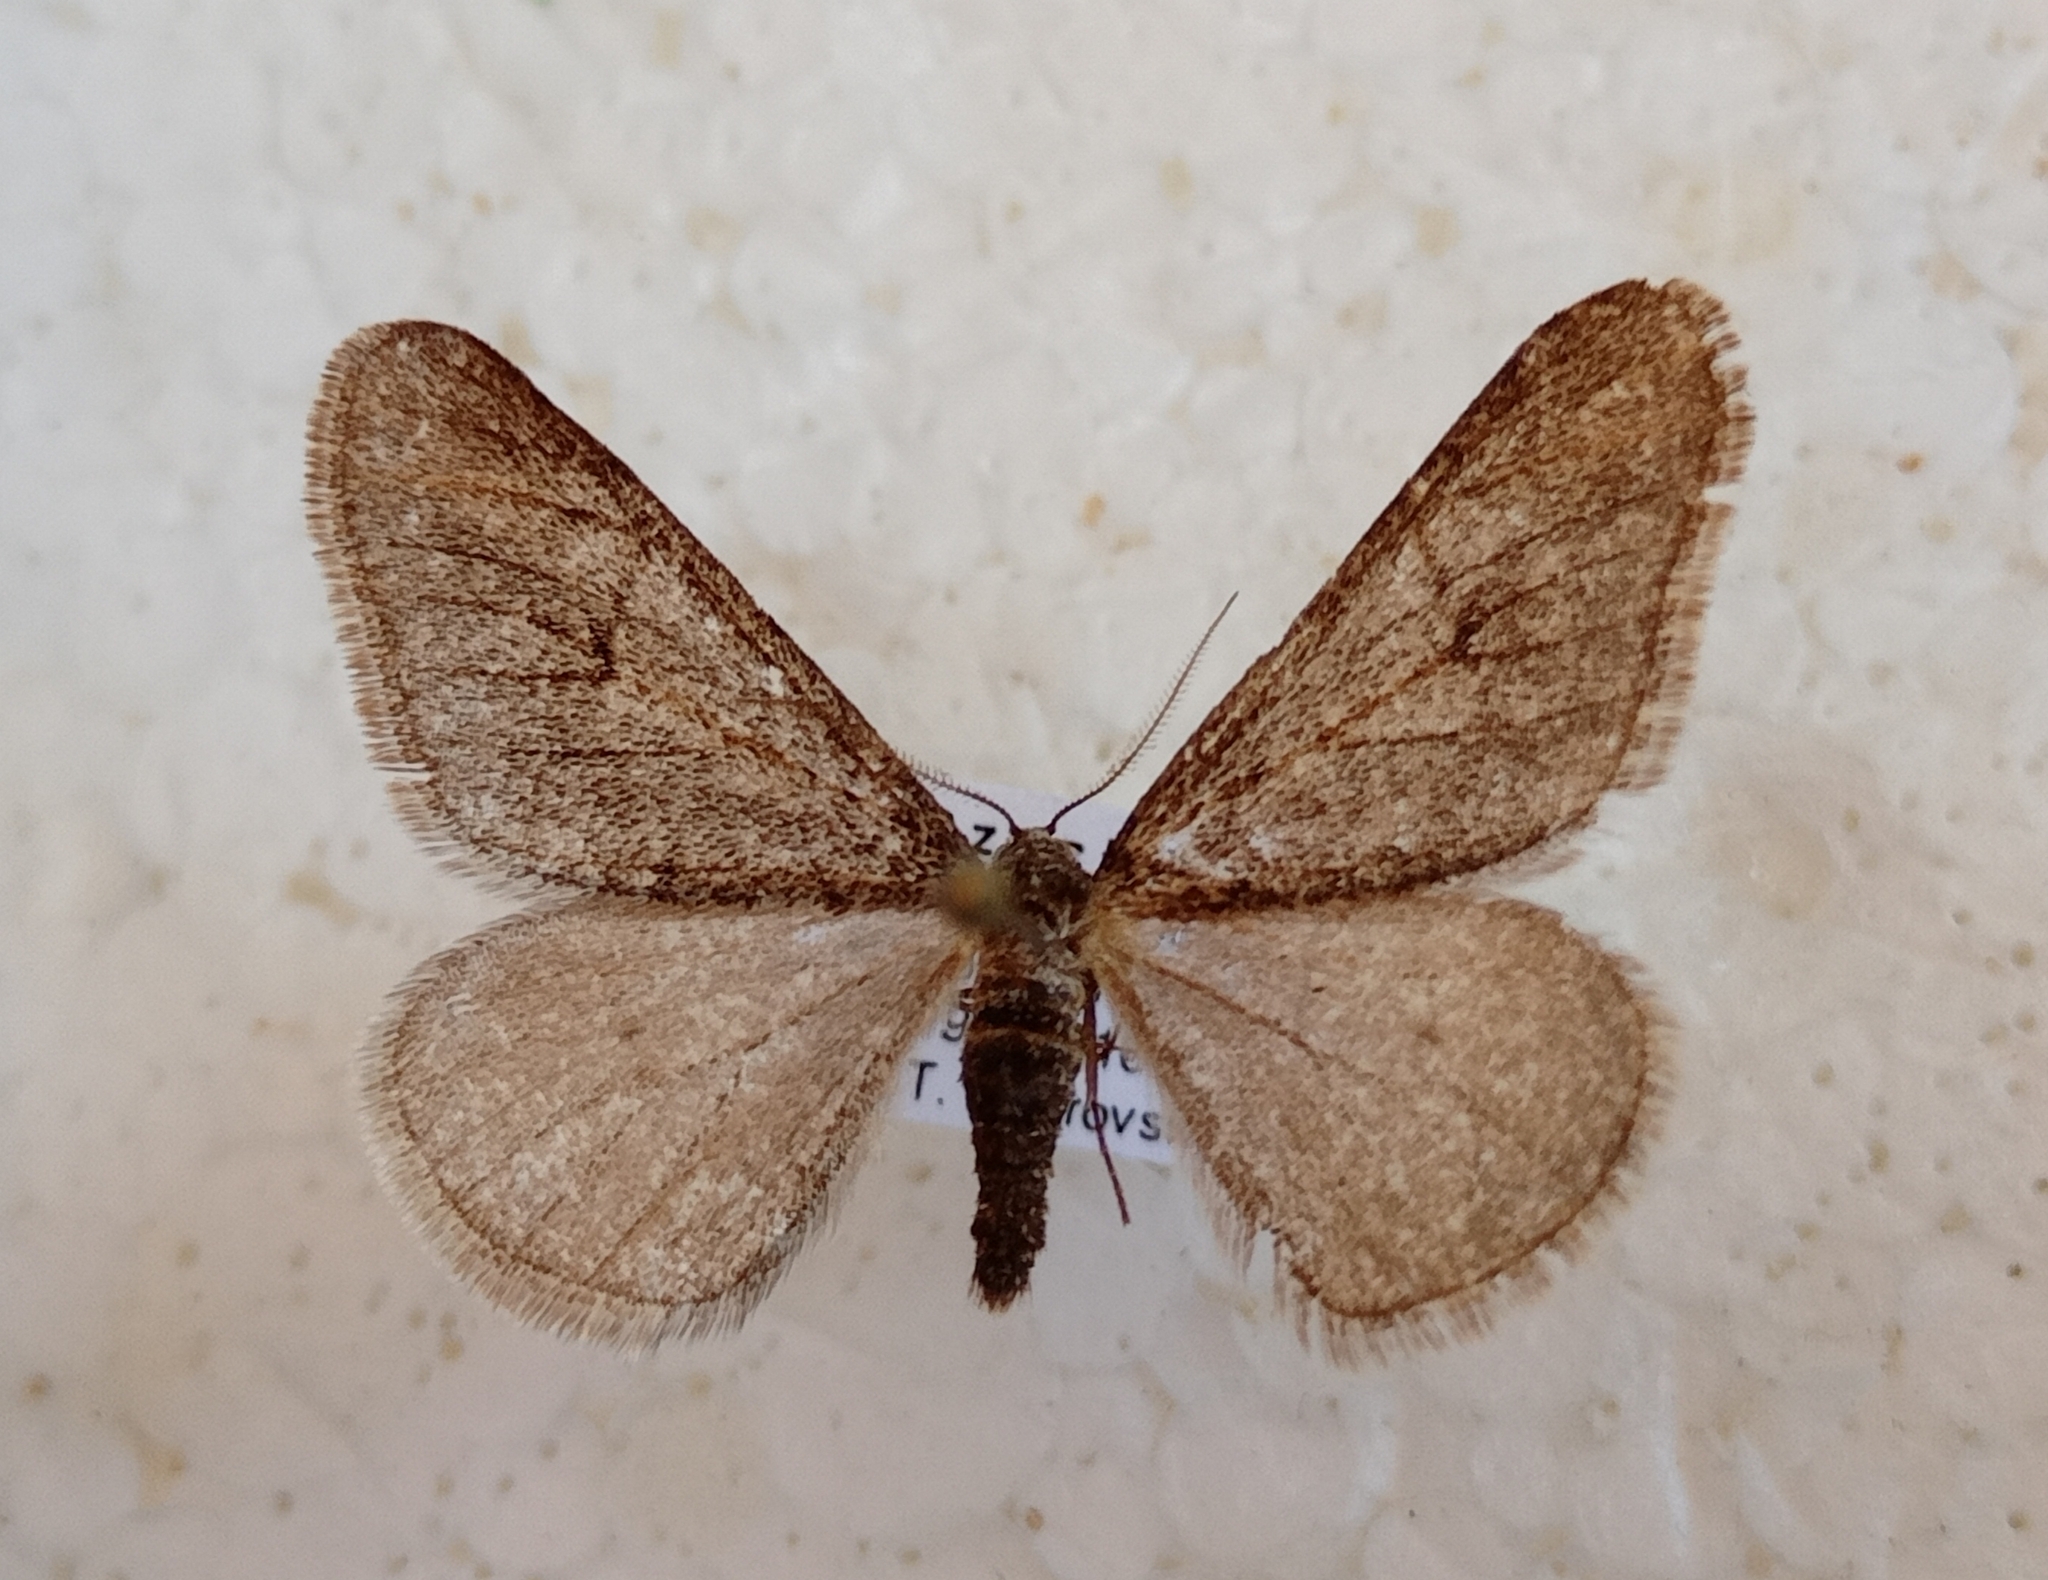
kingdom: Animalia
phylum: Arthropoda
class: Insecta
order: Lepidoptera
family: Geometridae
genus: Agriopis
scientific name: Agriopis leucophaearia
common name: Spring usher
